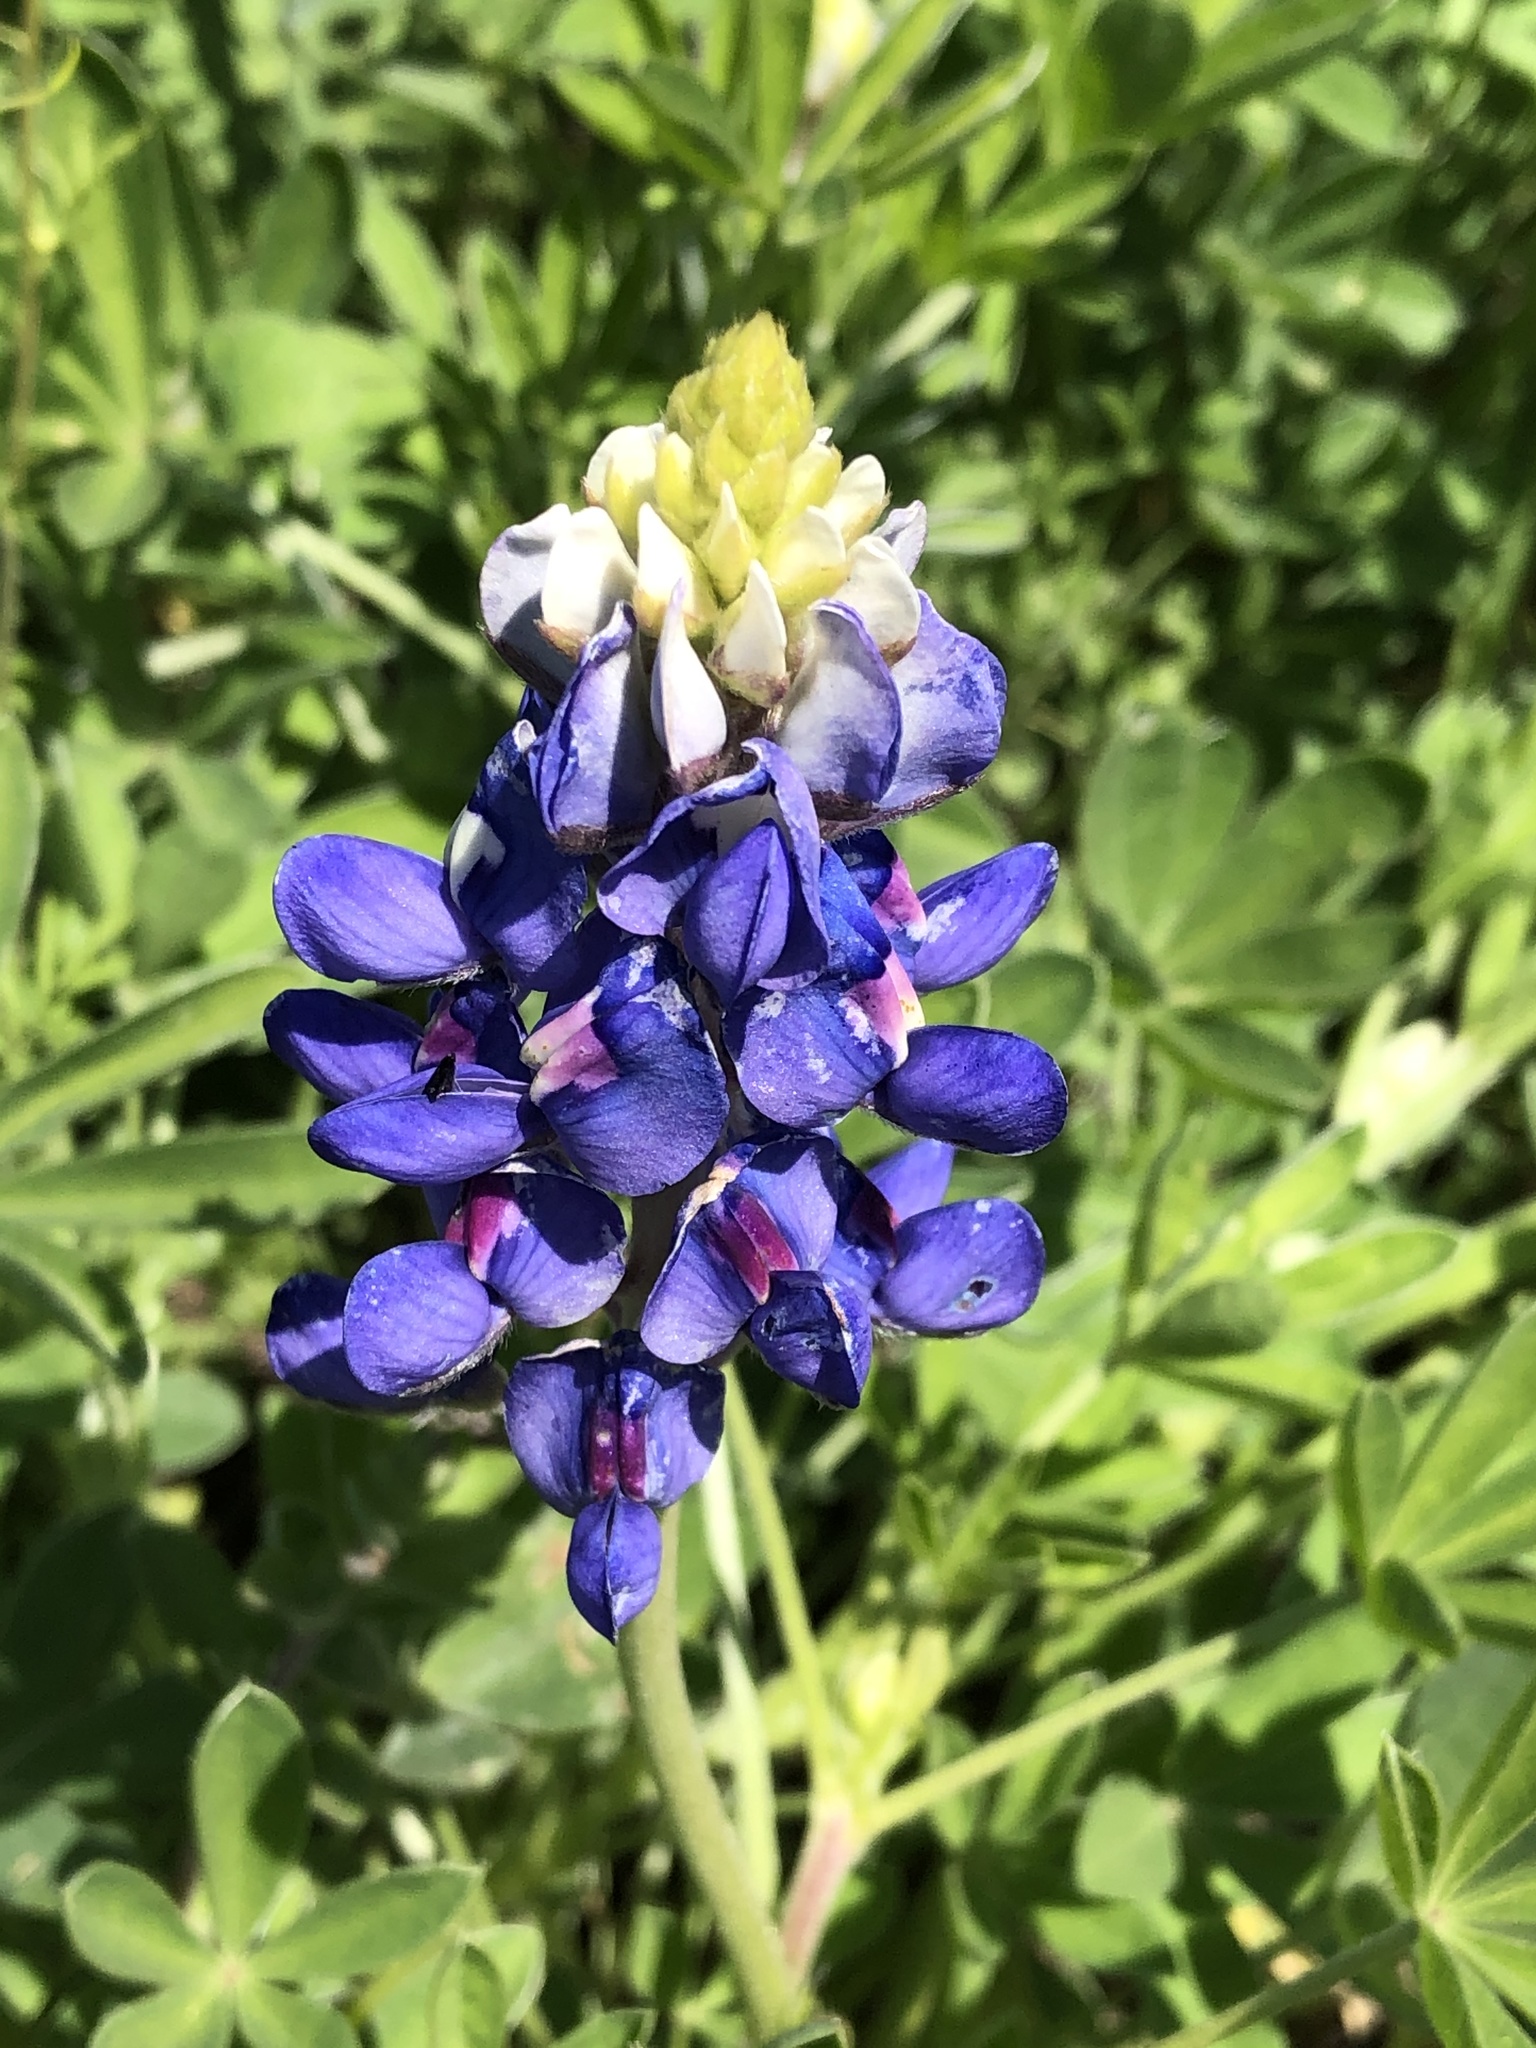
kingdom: Plantae
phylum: Tracheophyta
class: Magnoliopsida
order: Fabales
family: Fabaceae
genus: Lupinus
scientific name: Lupinus texensis
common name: Texas bluebonnet
